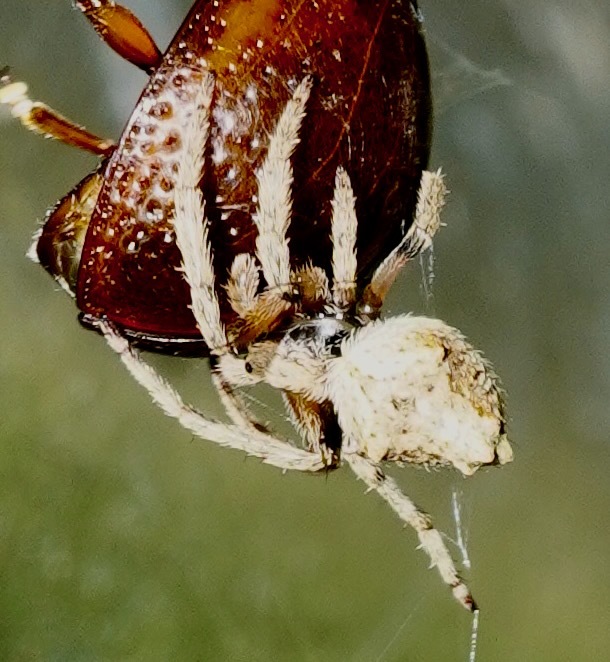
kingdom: Animalia
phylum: Arthropoda
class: Arachnida
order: Araneae
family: Araneidae
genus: Eriophora
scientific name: Eriophora pustulosa
